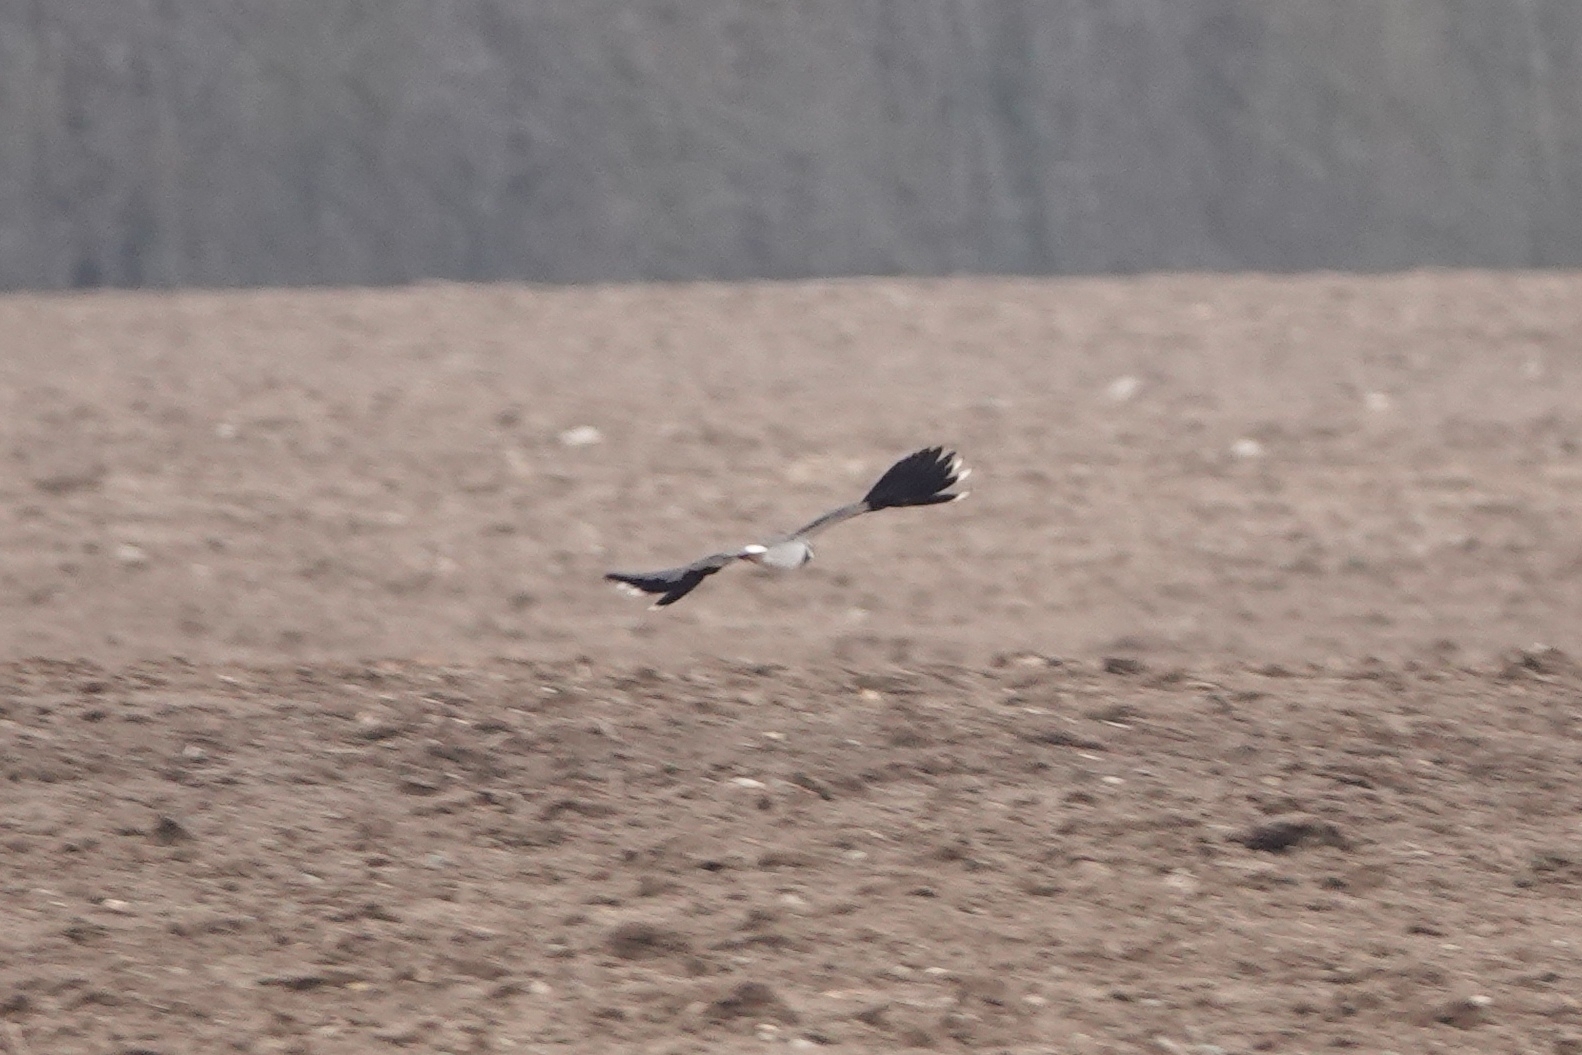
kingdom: Animalia
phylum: Chordata
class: Aves
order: Charadriiformes
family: Charadriidae
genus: Vanellus
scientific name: Vanellus vanellus
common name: Northern lapwing
